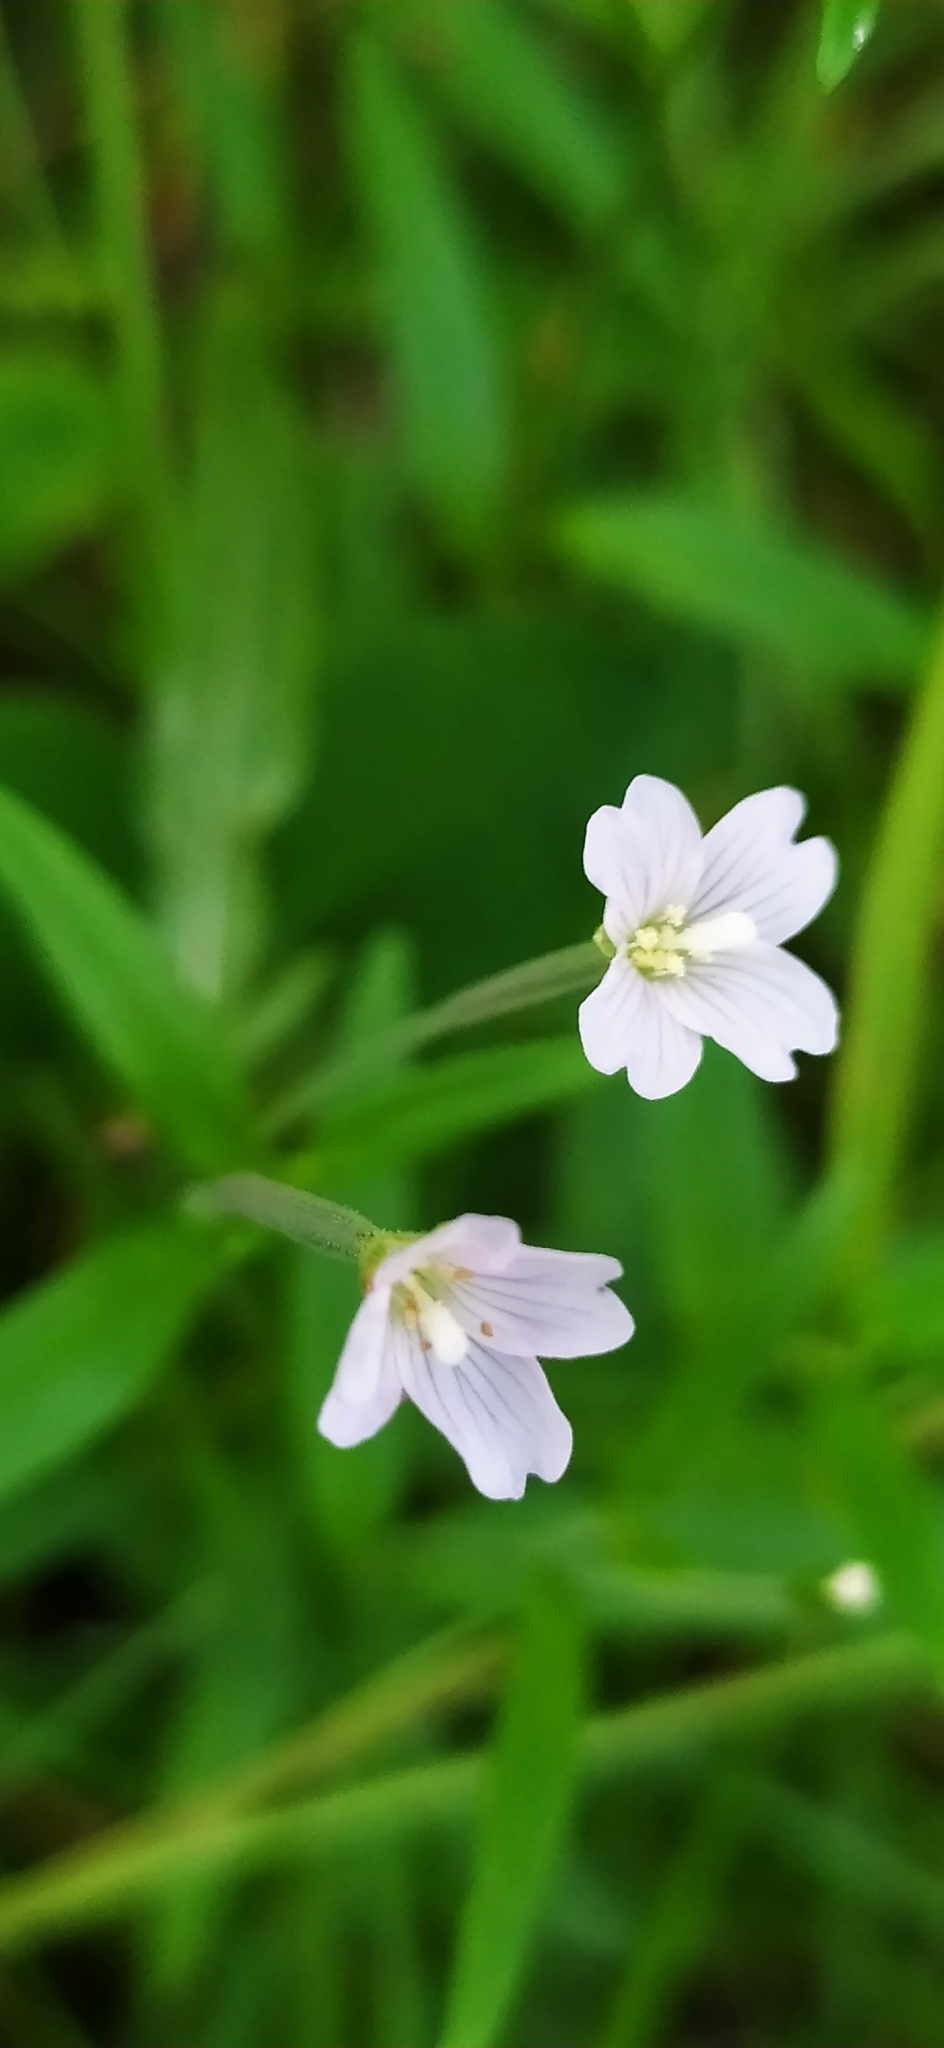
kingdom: Plantae
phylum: Tracheophyta
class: Magnoliopsida
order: Myrtales
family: Onagraceae
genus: Epilobium
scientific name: Epilobium palustre
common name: Marsh willowherb
